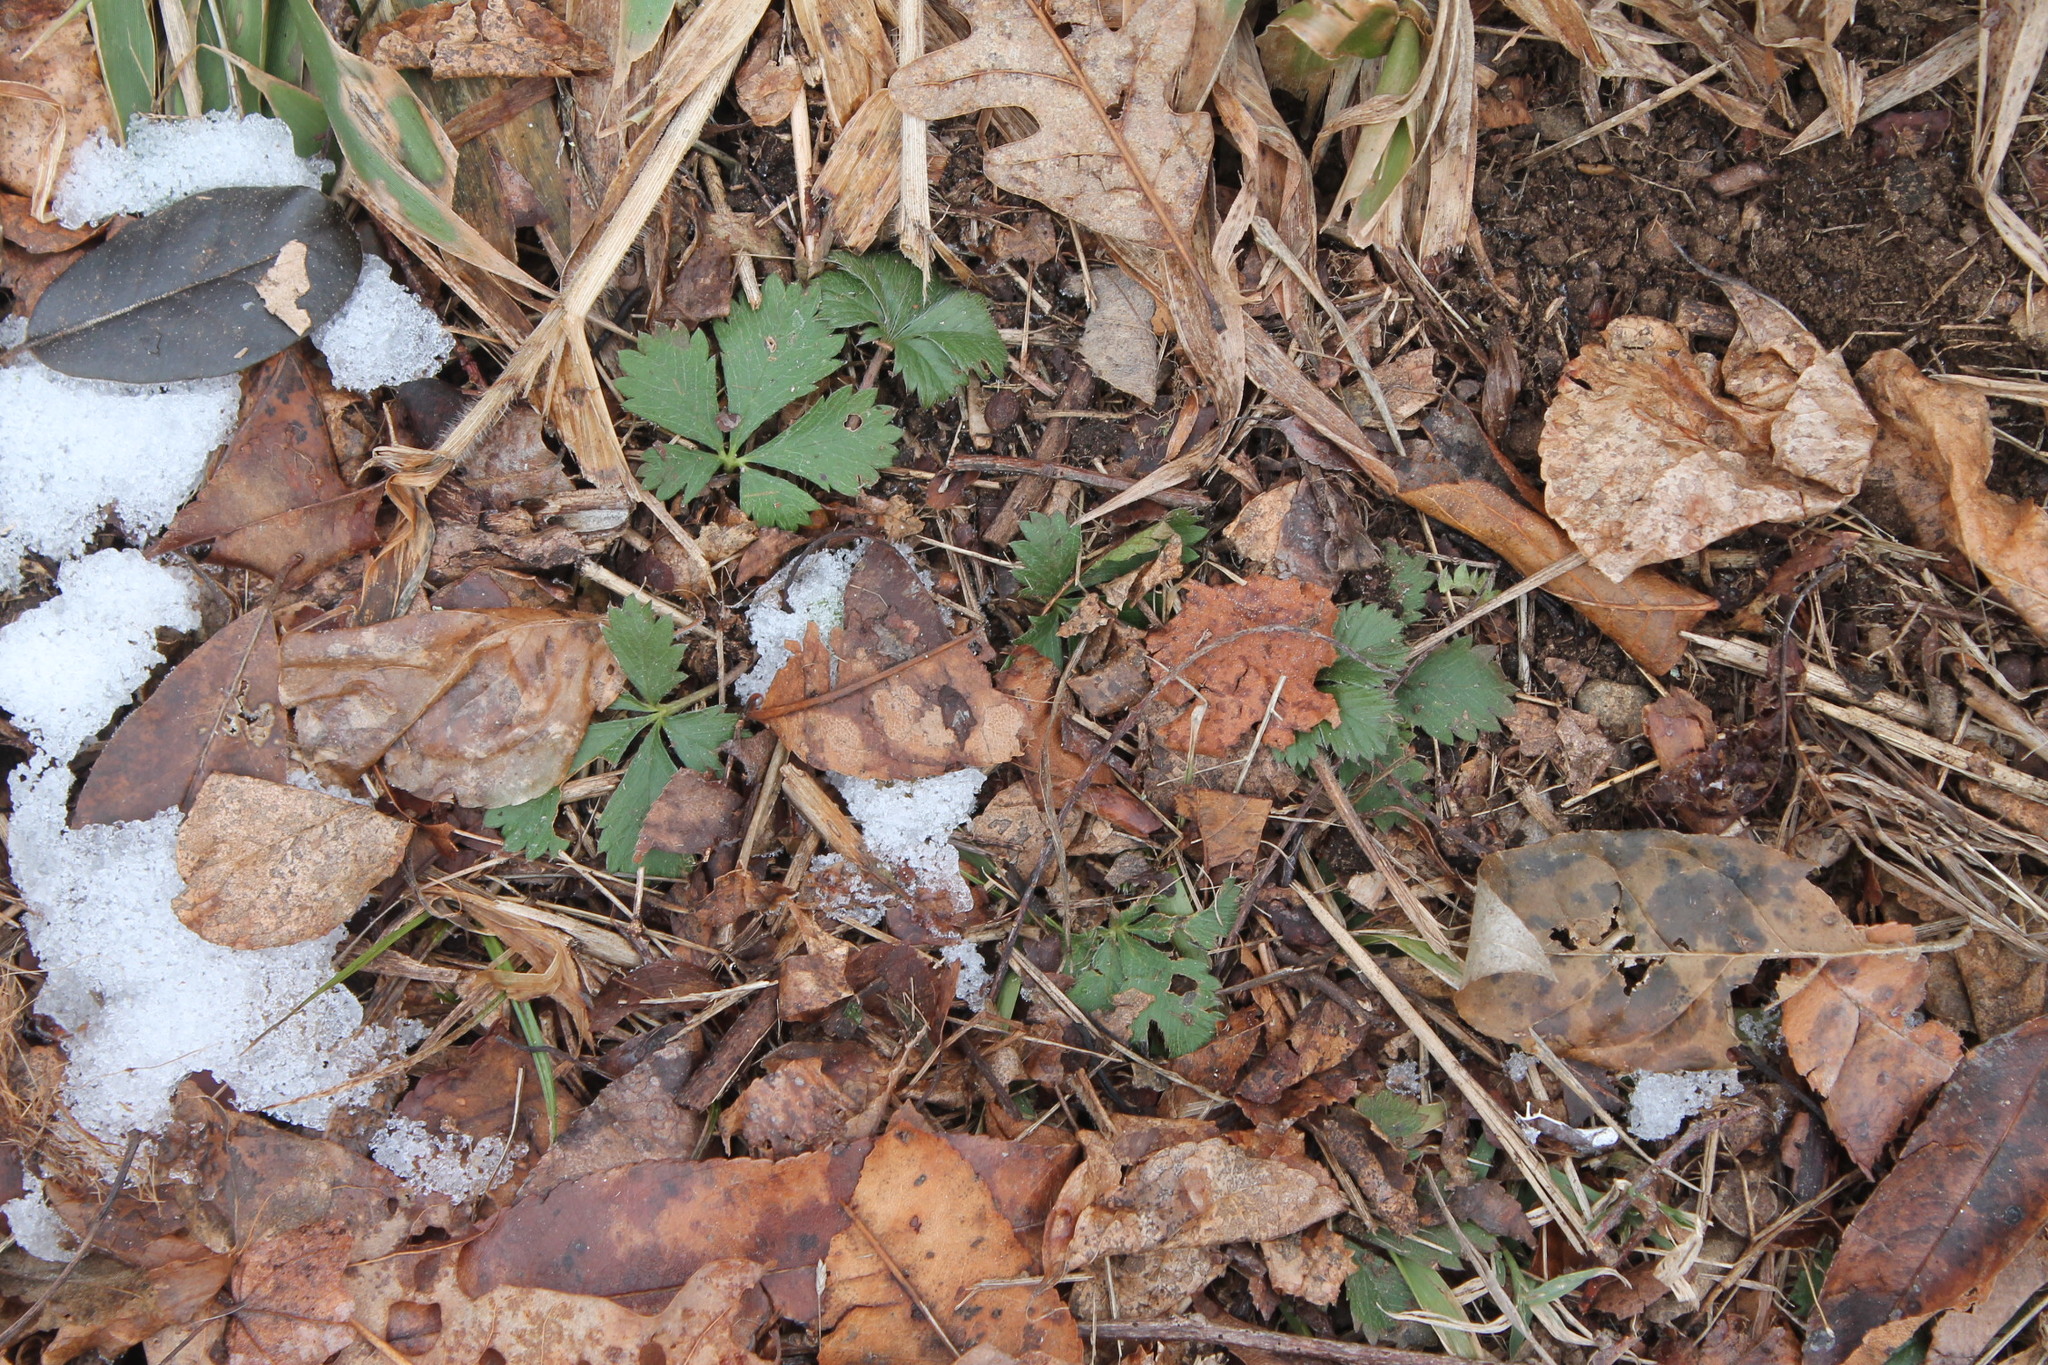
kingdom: Plantae
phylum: Tracheophyta
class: Magnoliopsida
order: Rosales
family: Rosaceae
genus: Potentilla
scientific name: Potentilla canadensis
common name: Canada cinquefoil
